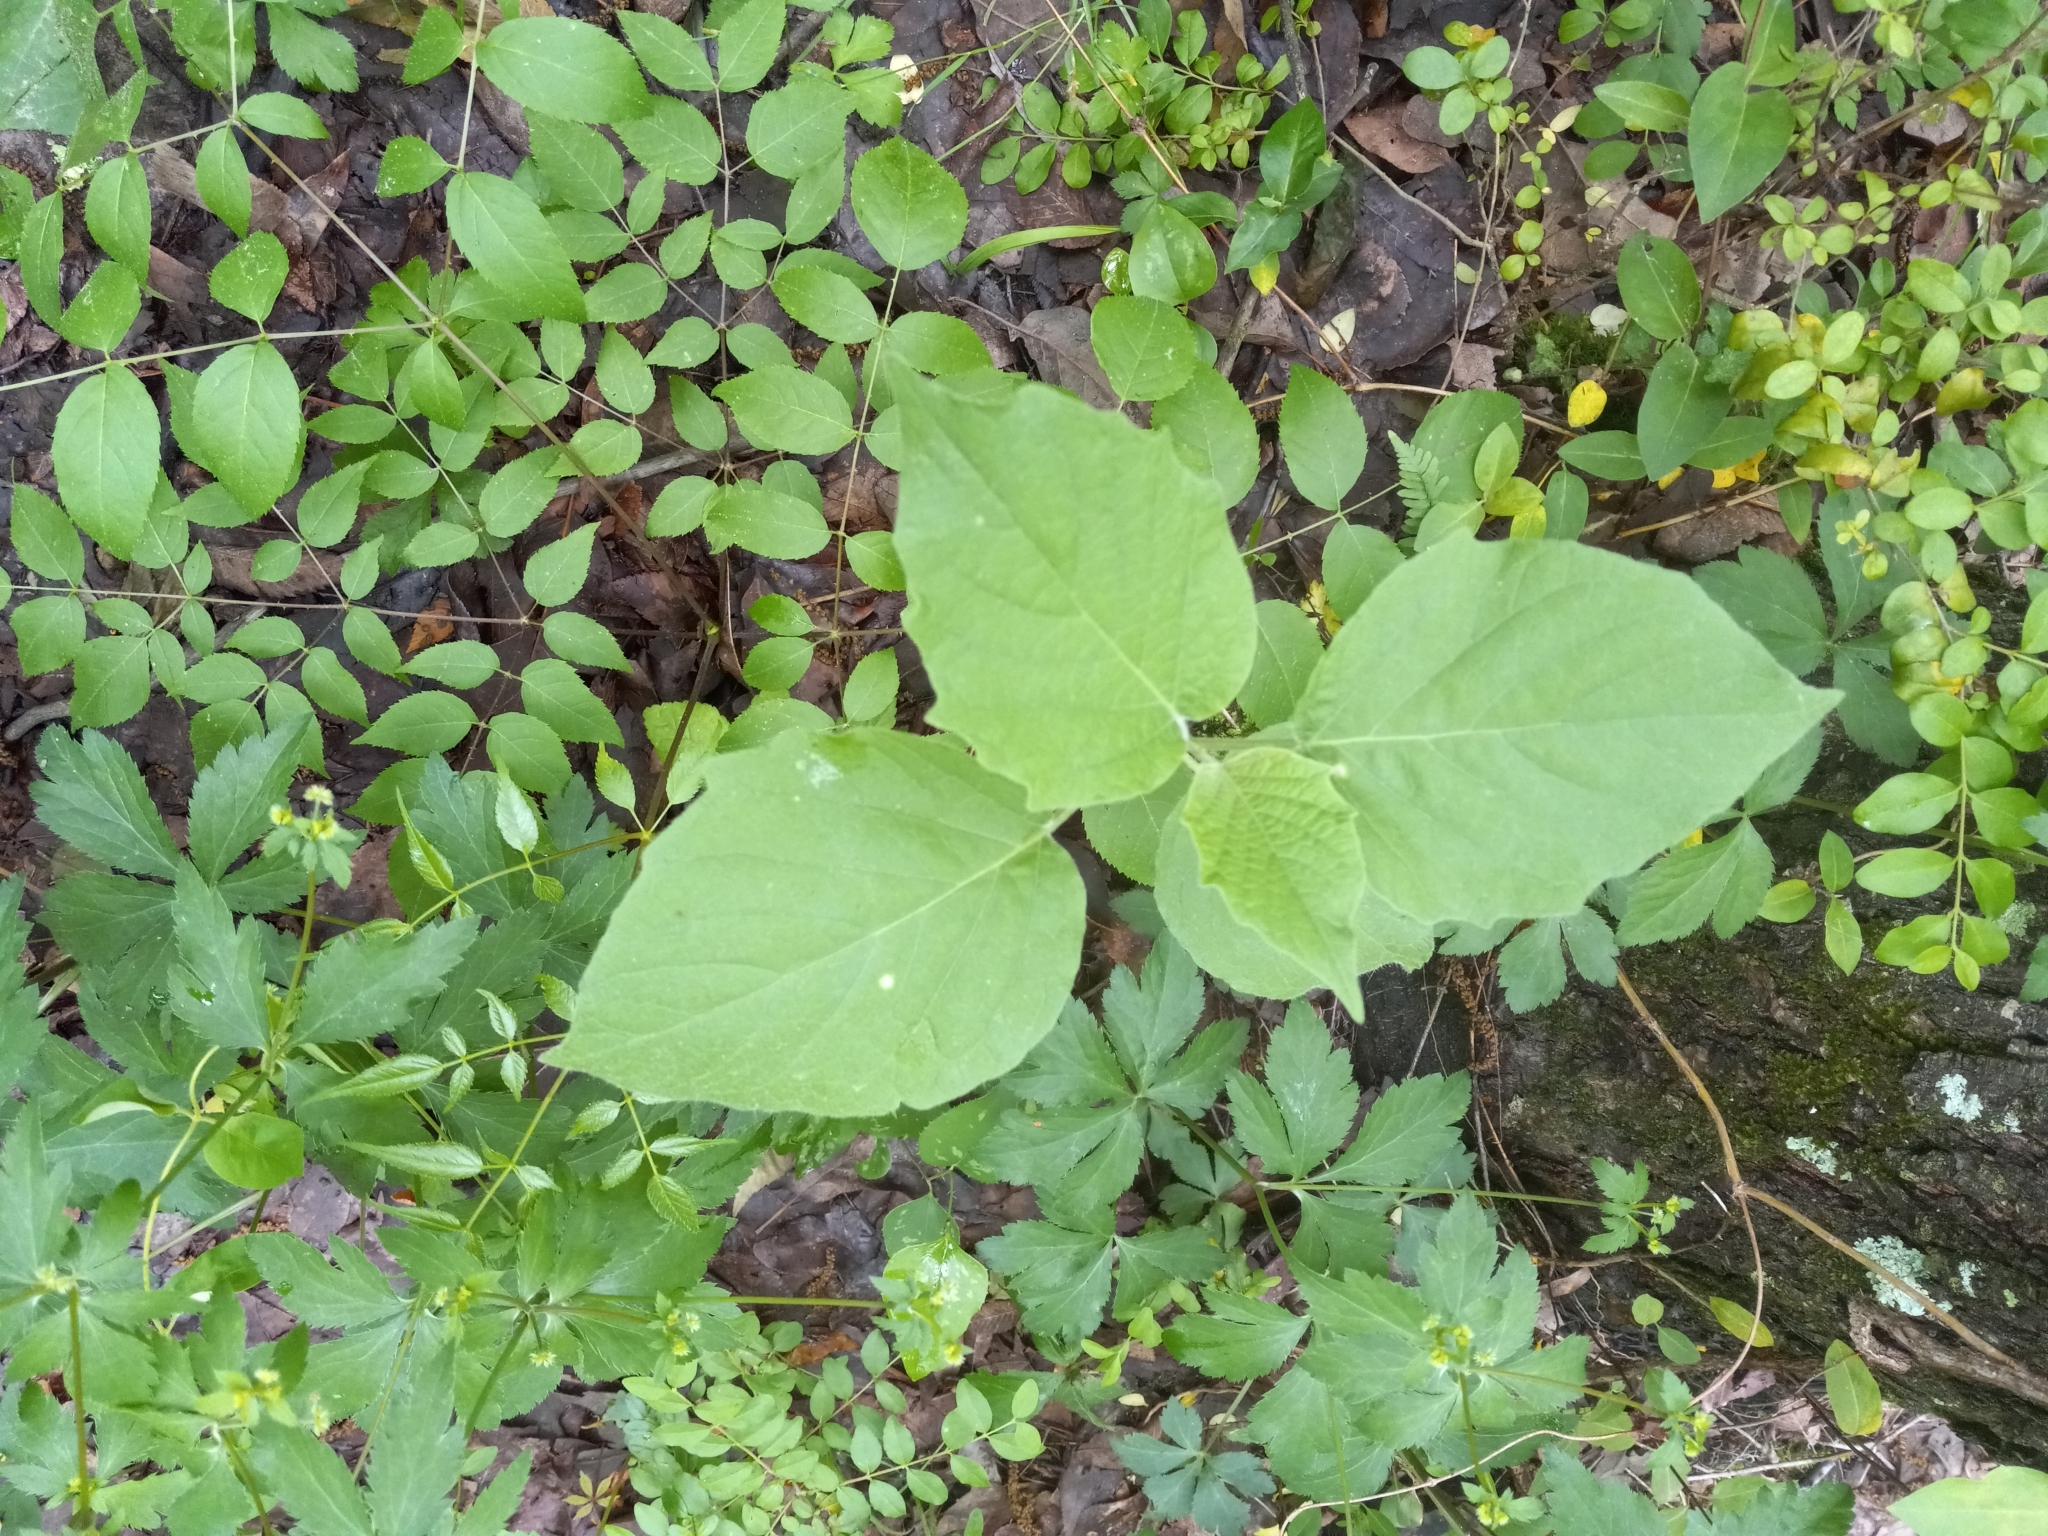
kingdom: Plantae
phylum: Tracheophyta
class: Magnoliopsida
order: Solanales
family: Solanaceae
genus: Physalis
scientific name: Physalis heterophylla
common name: Clammy ground-cherry
